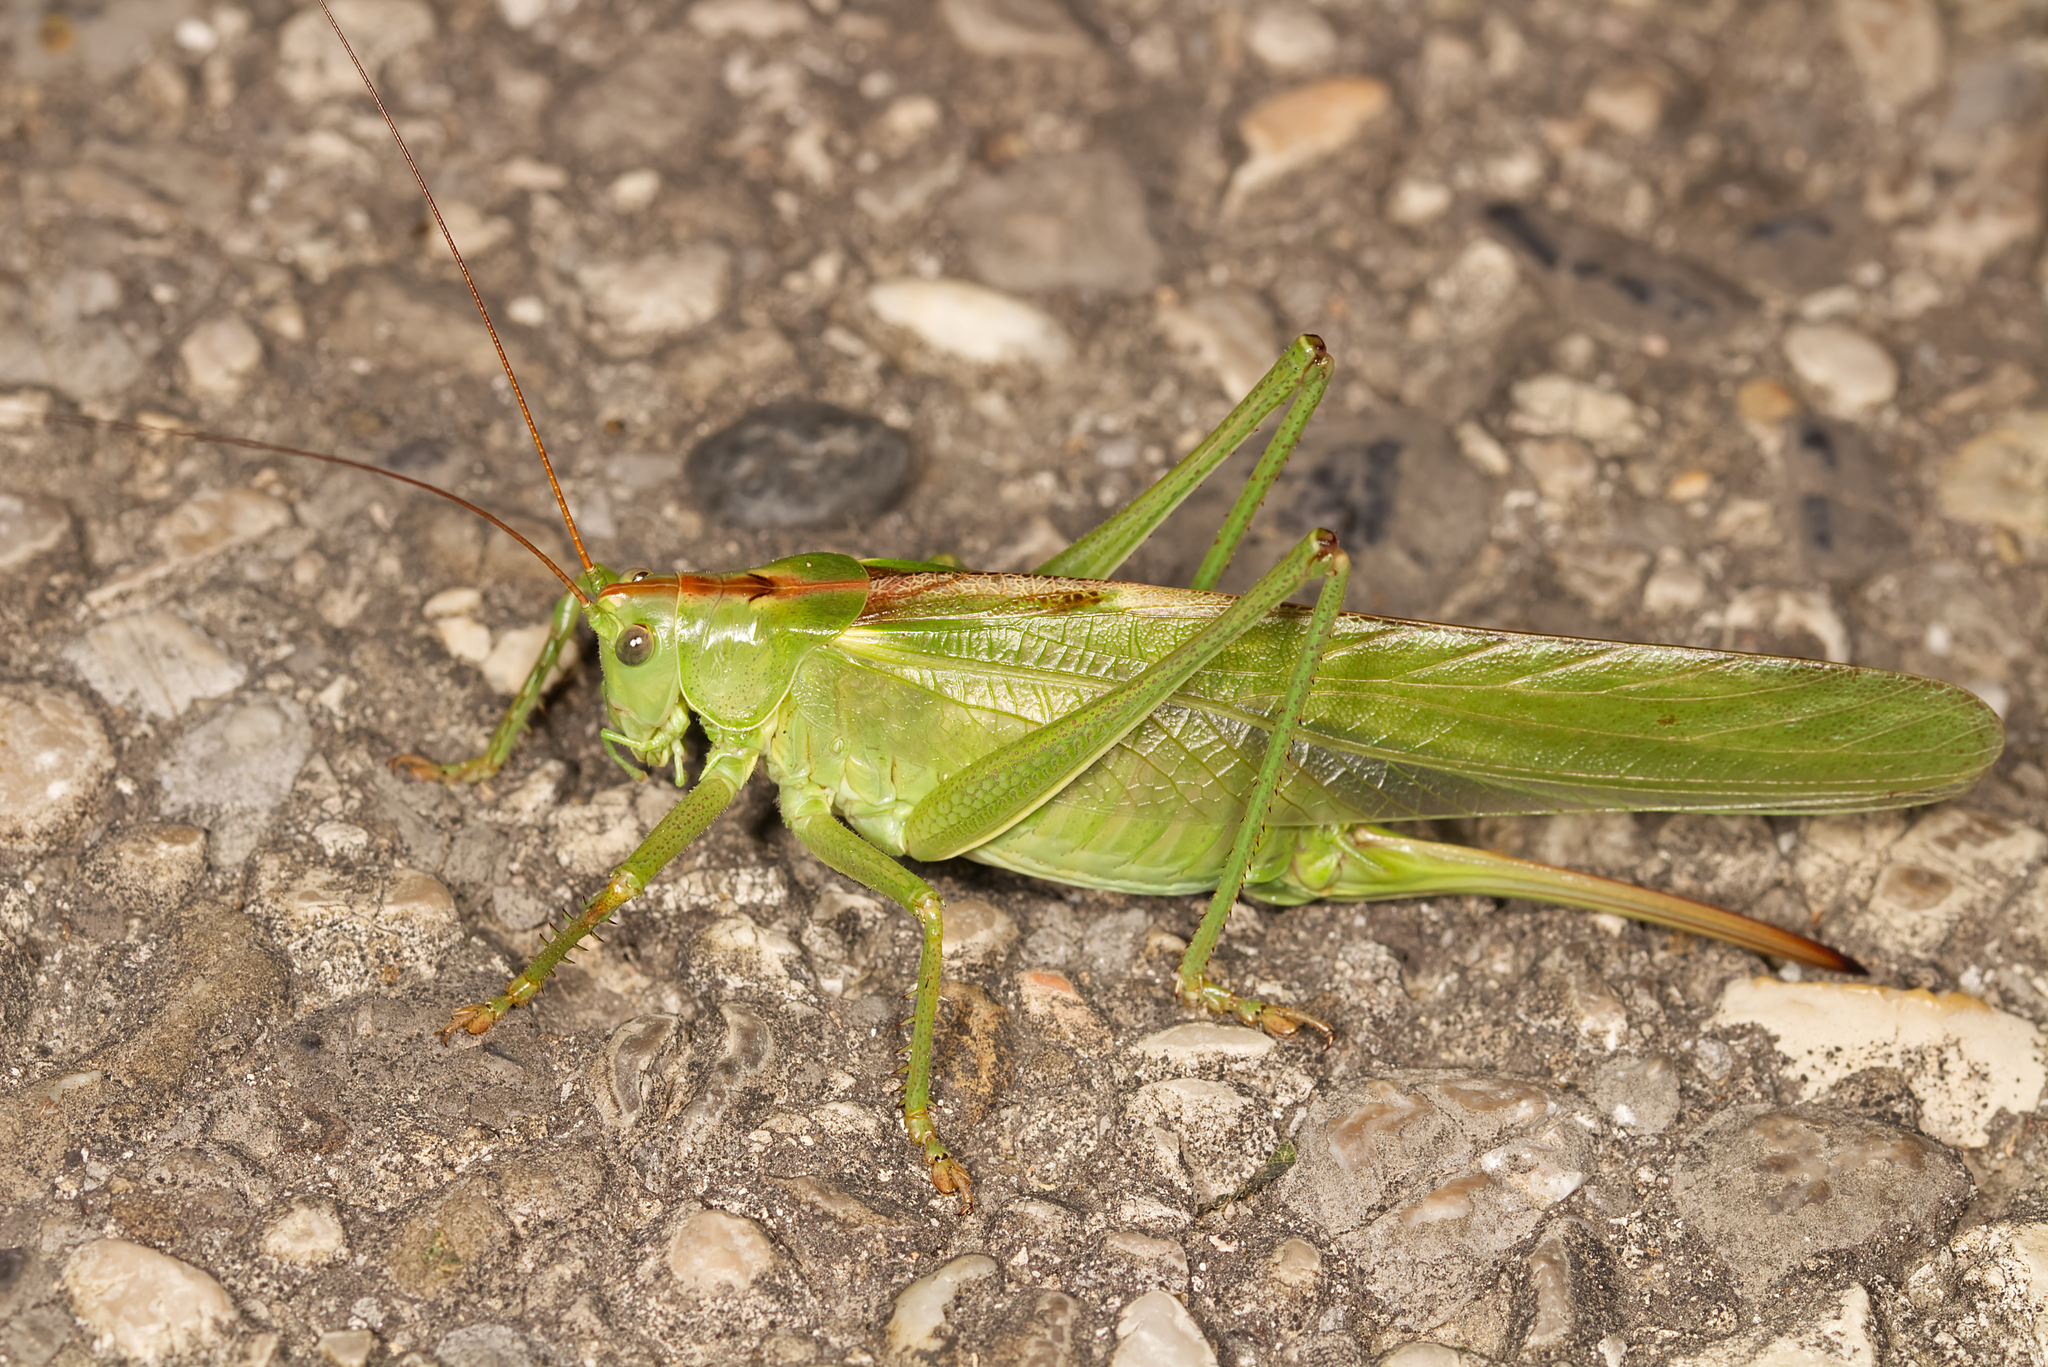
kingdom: Animalia
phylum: Arthropoda
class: Insecta
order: Orthoptera
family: Tettigoniidae
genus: Tettigonia
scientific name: Tettigonia viridissima
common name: Great green bush-cricket
